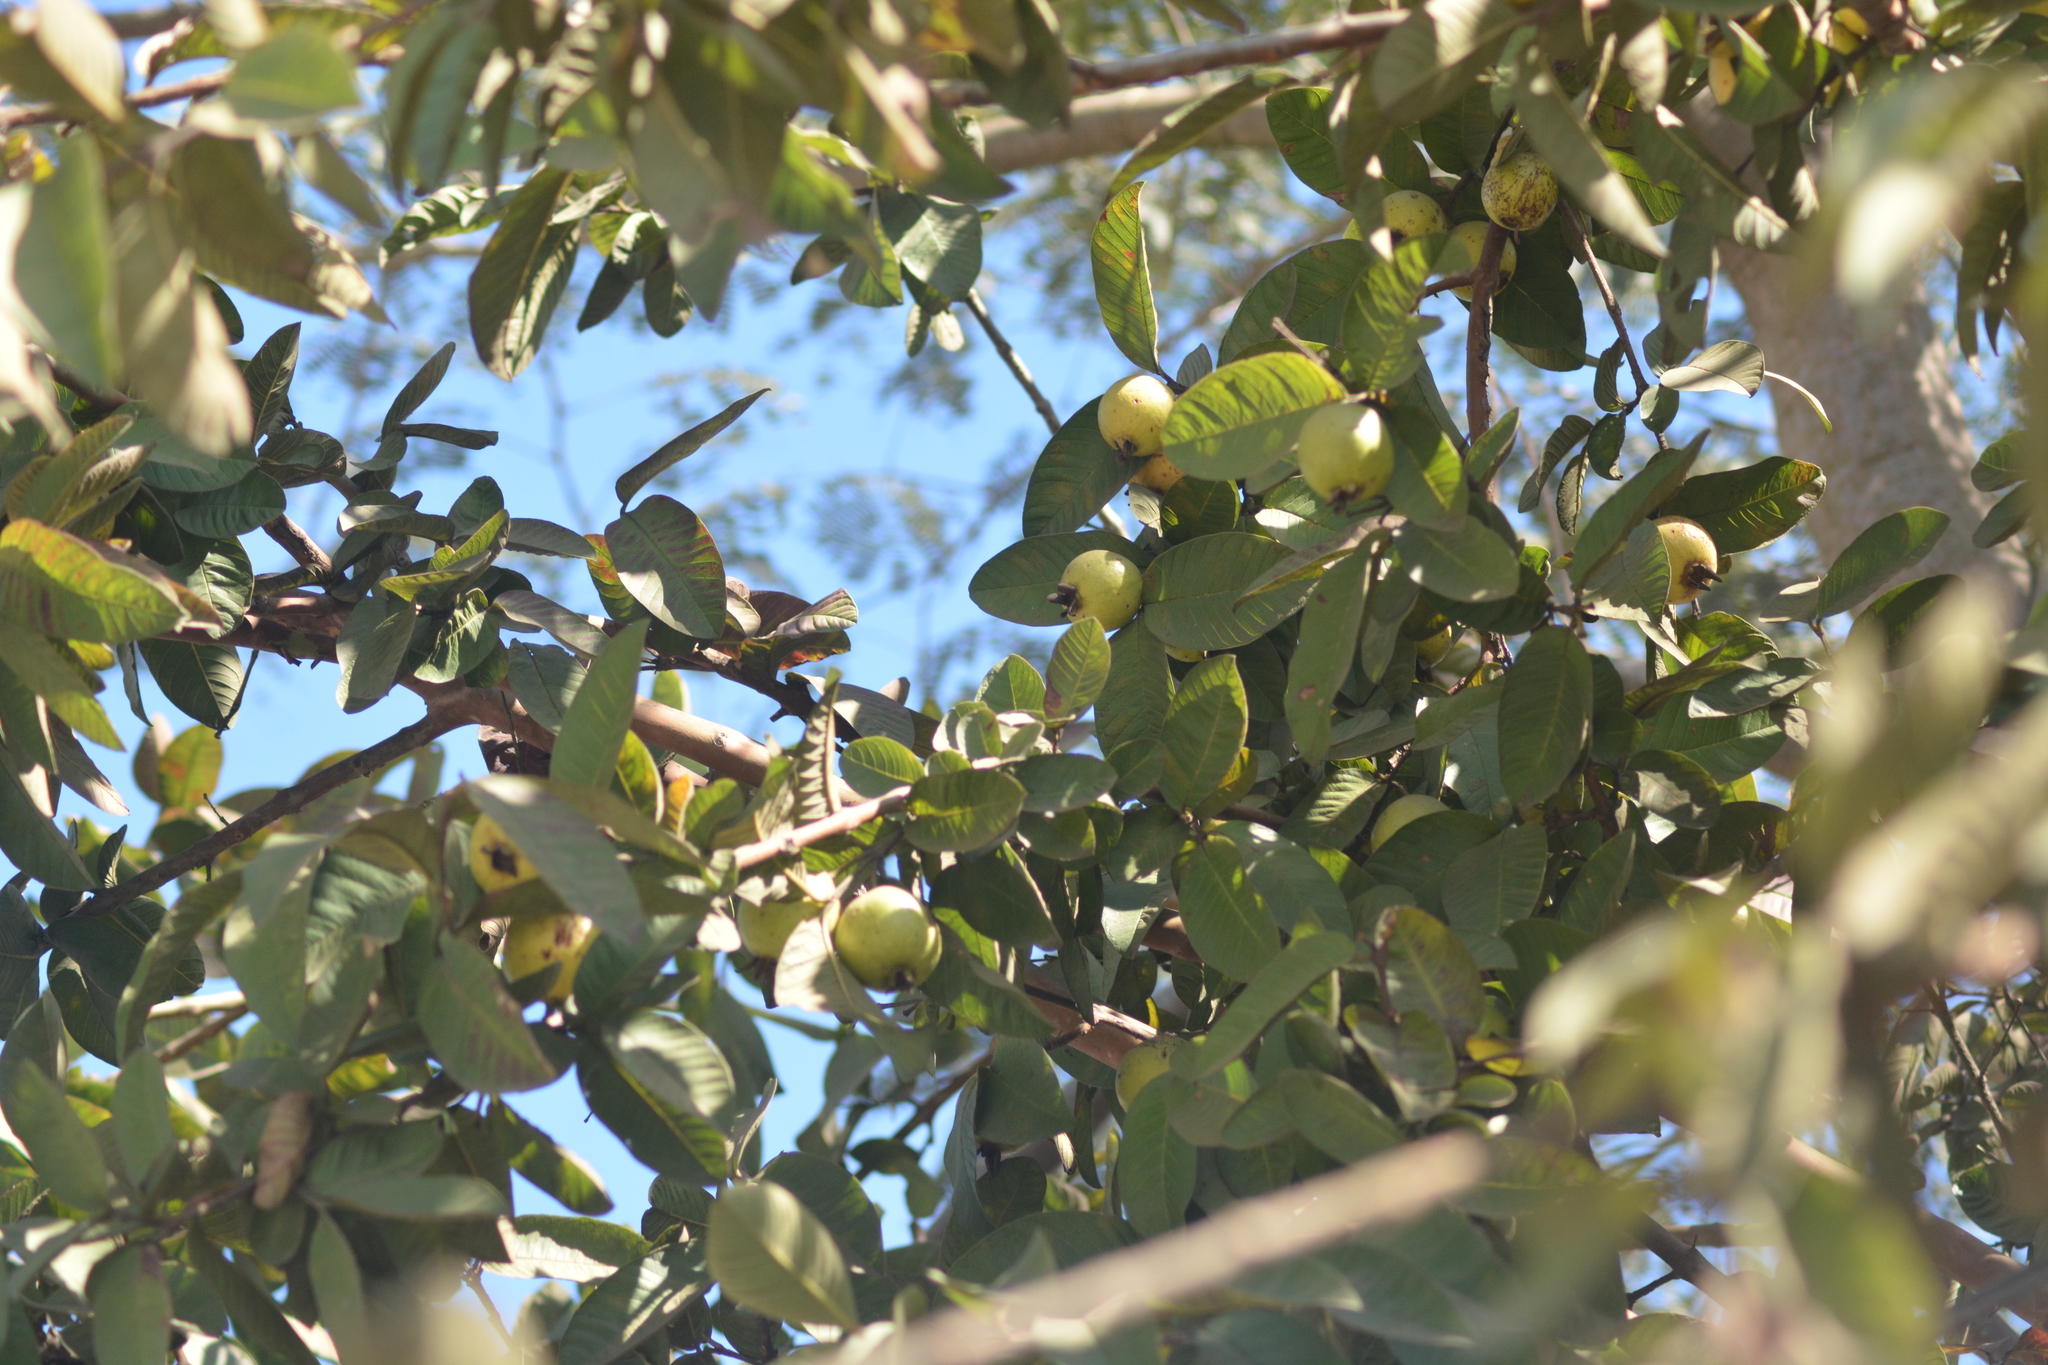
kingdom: Plantae
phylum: Tracheophyta
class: Magnoliopsida
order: Myrtales
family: Myrtaceae
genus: Psidium
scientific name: Psidium guajava
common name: Guava
